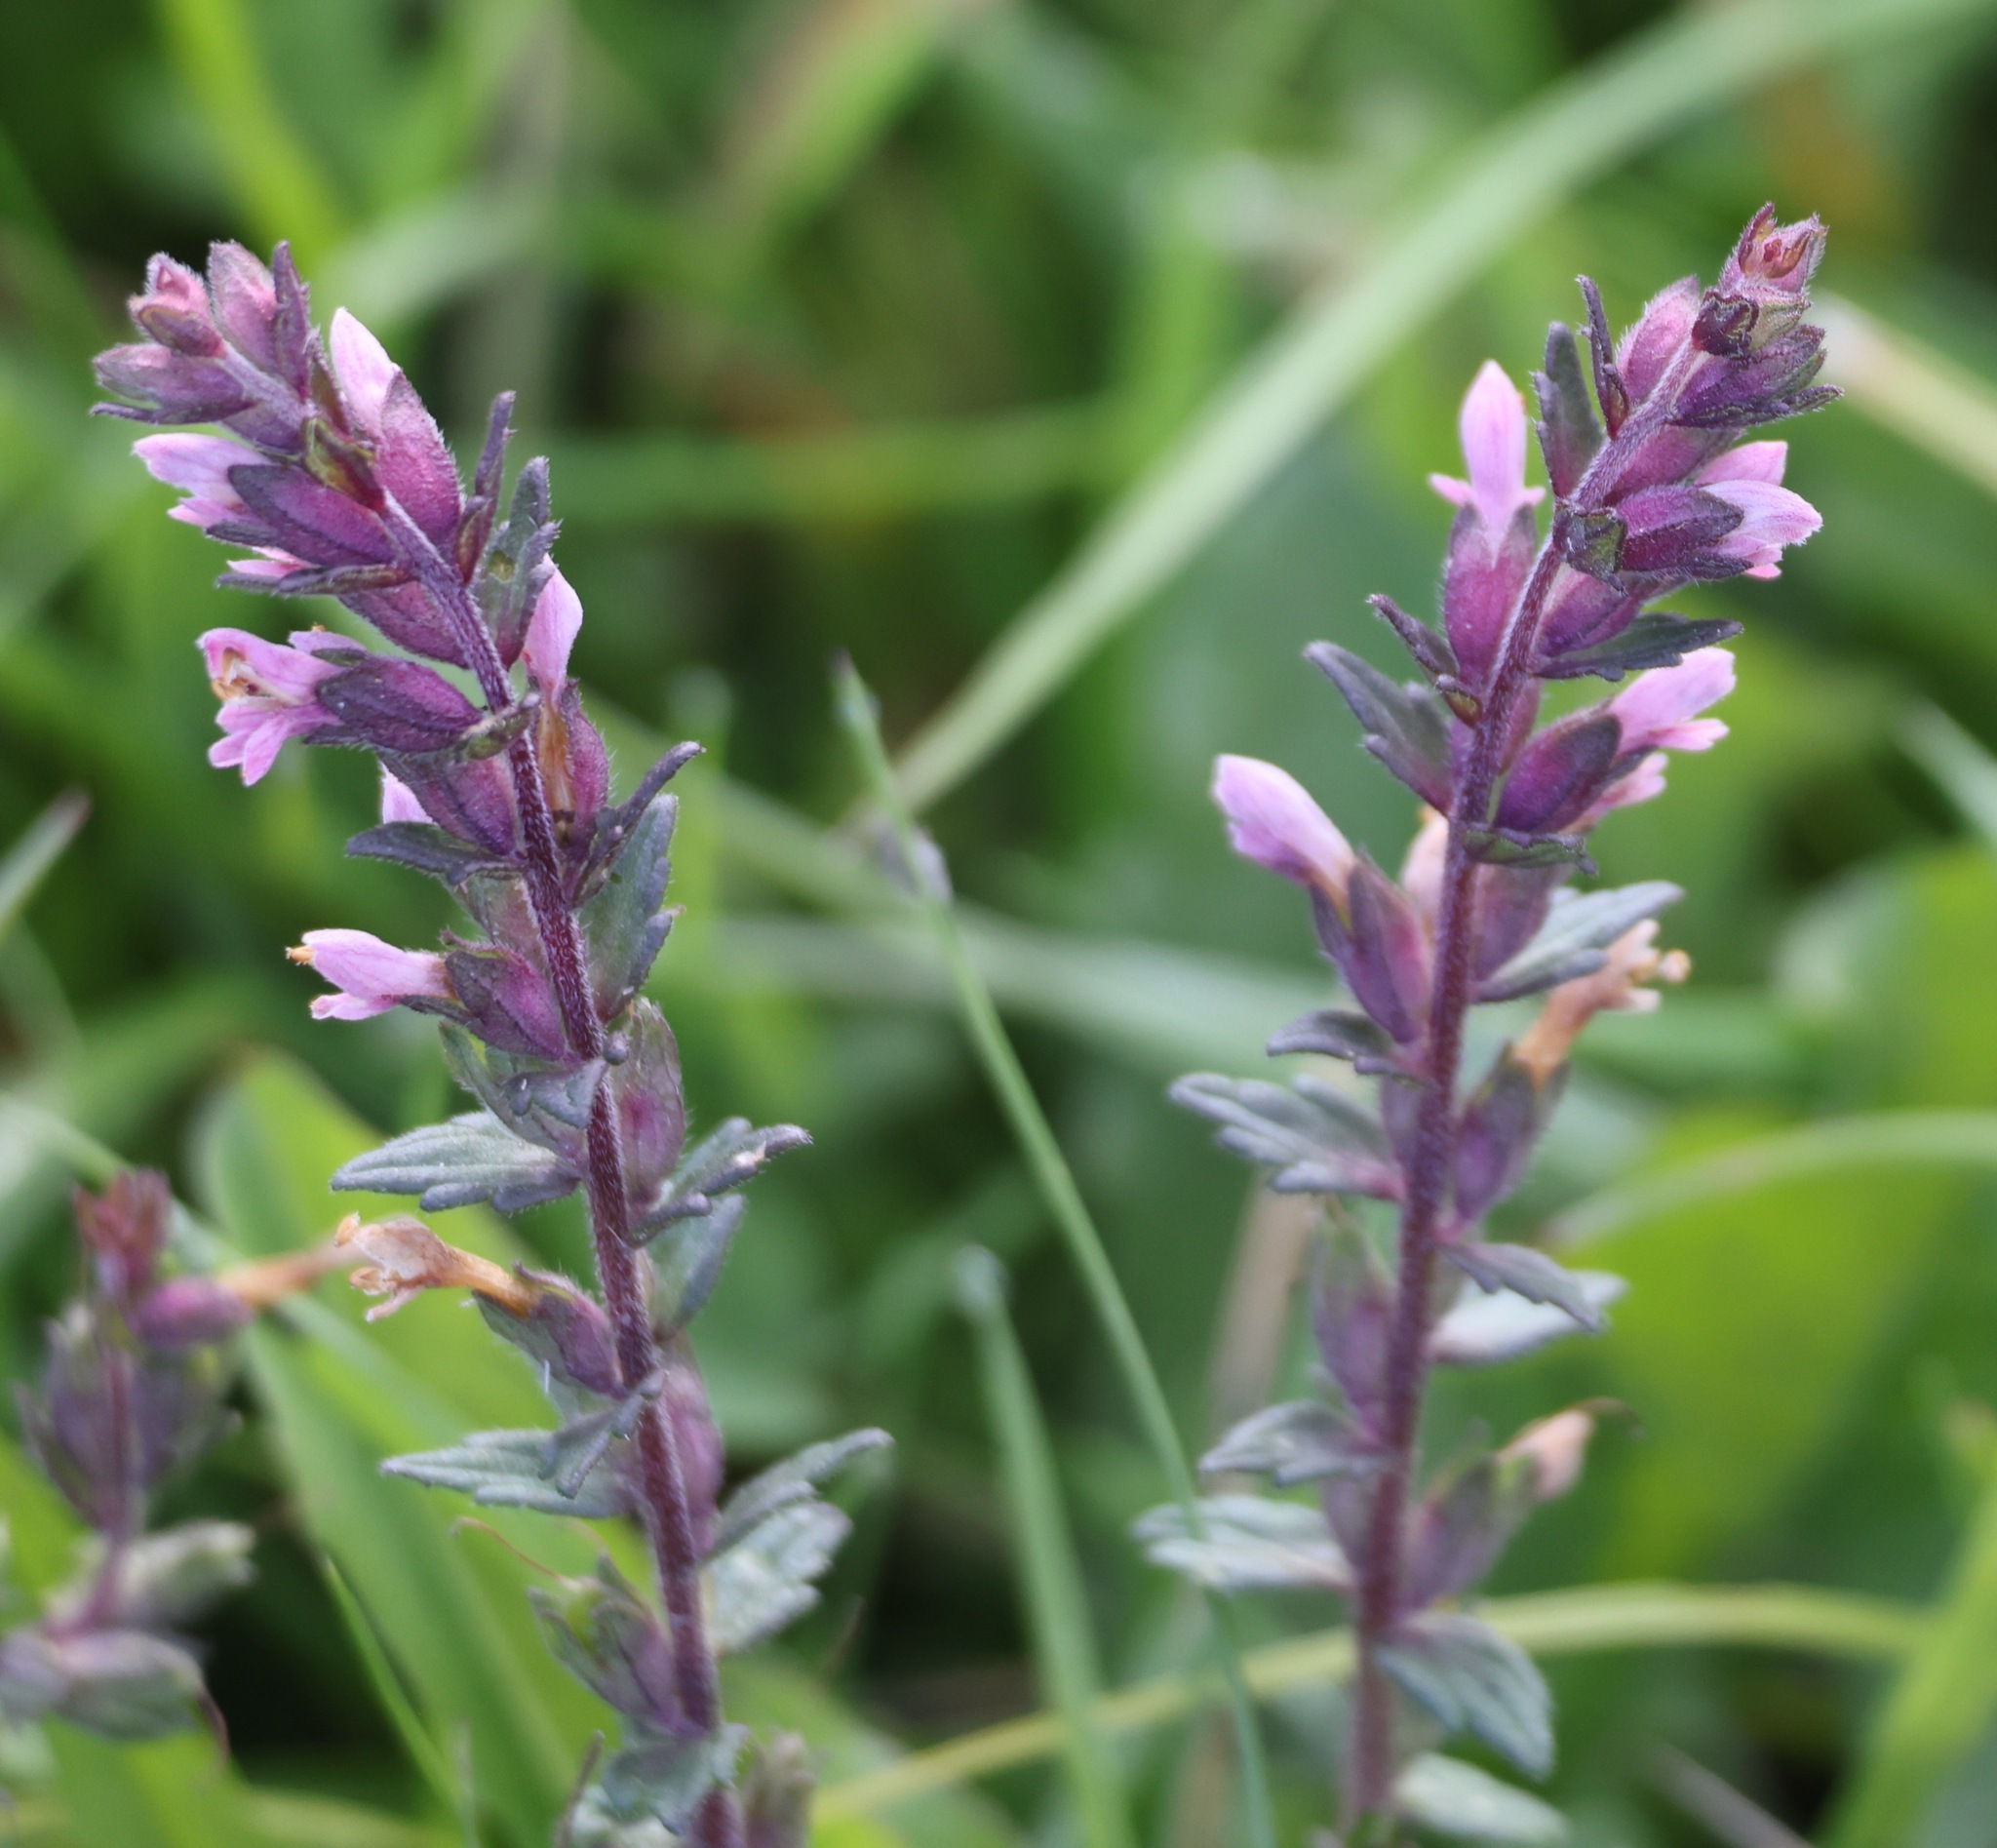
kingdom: Plantae
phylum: Tracheophyta
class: Magnoliopsida
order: Lamiales
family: Orobanchaceae
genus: Odontites
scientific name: Odontites vulgaris
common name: Broomrape
